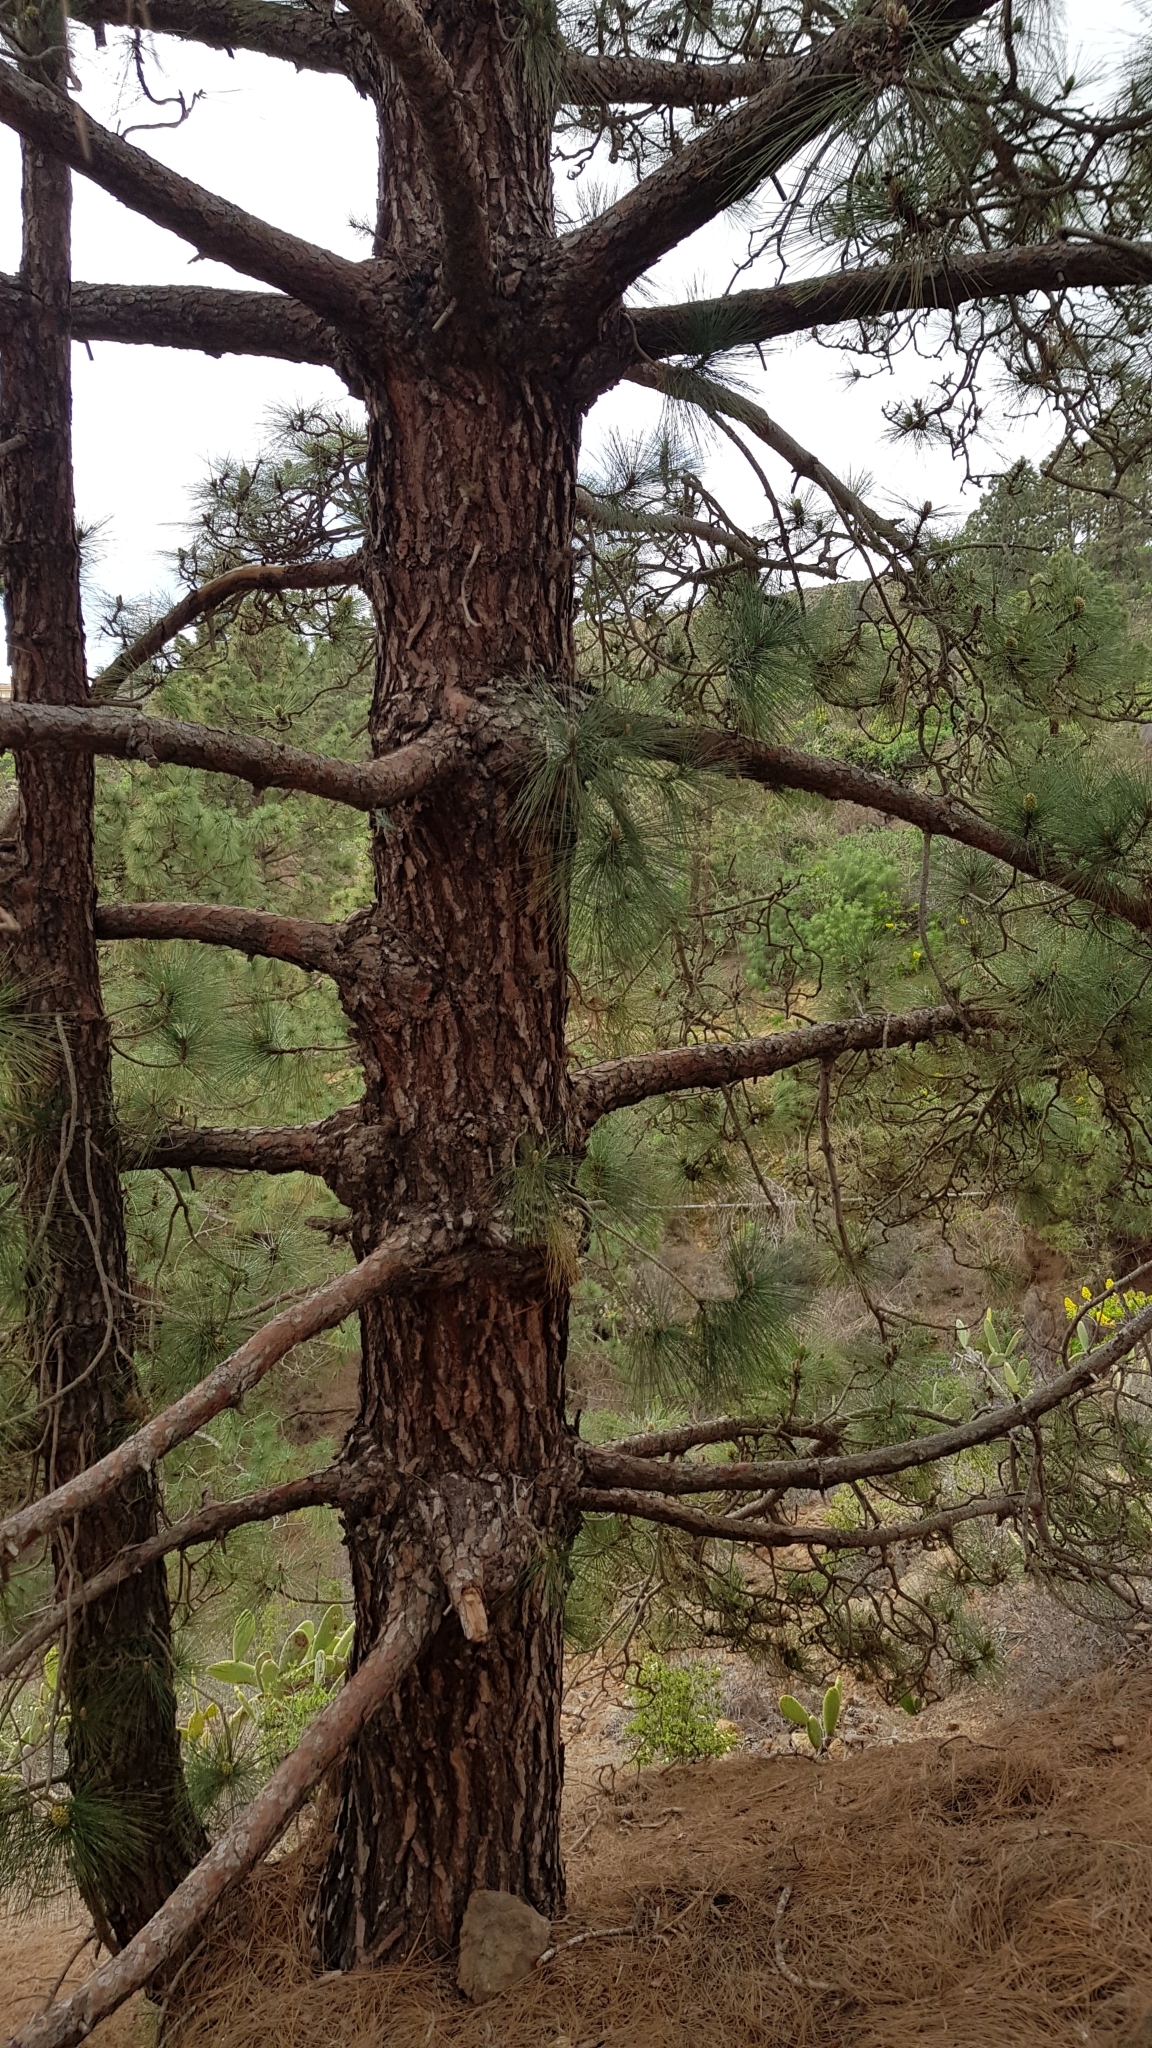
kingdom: Plantae
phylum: Tracheophyta
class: Pinopsida
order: Pinales
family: Pinaceae
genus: Pinus
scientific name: Pinus canariensis
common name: Canary islands pine
